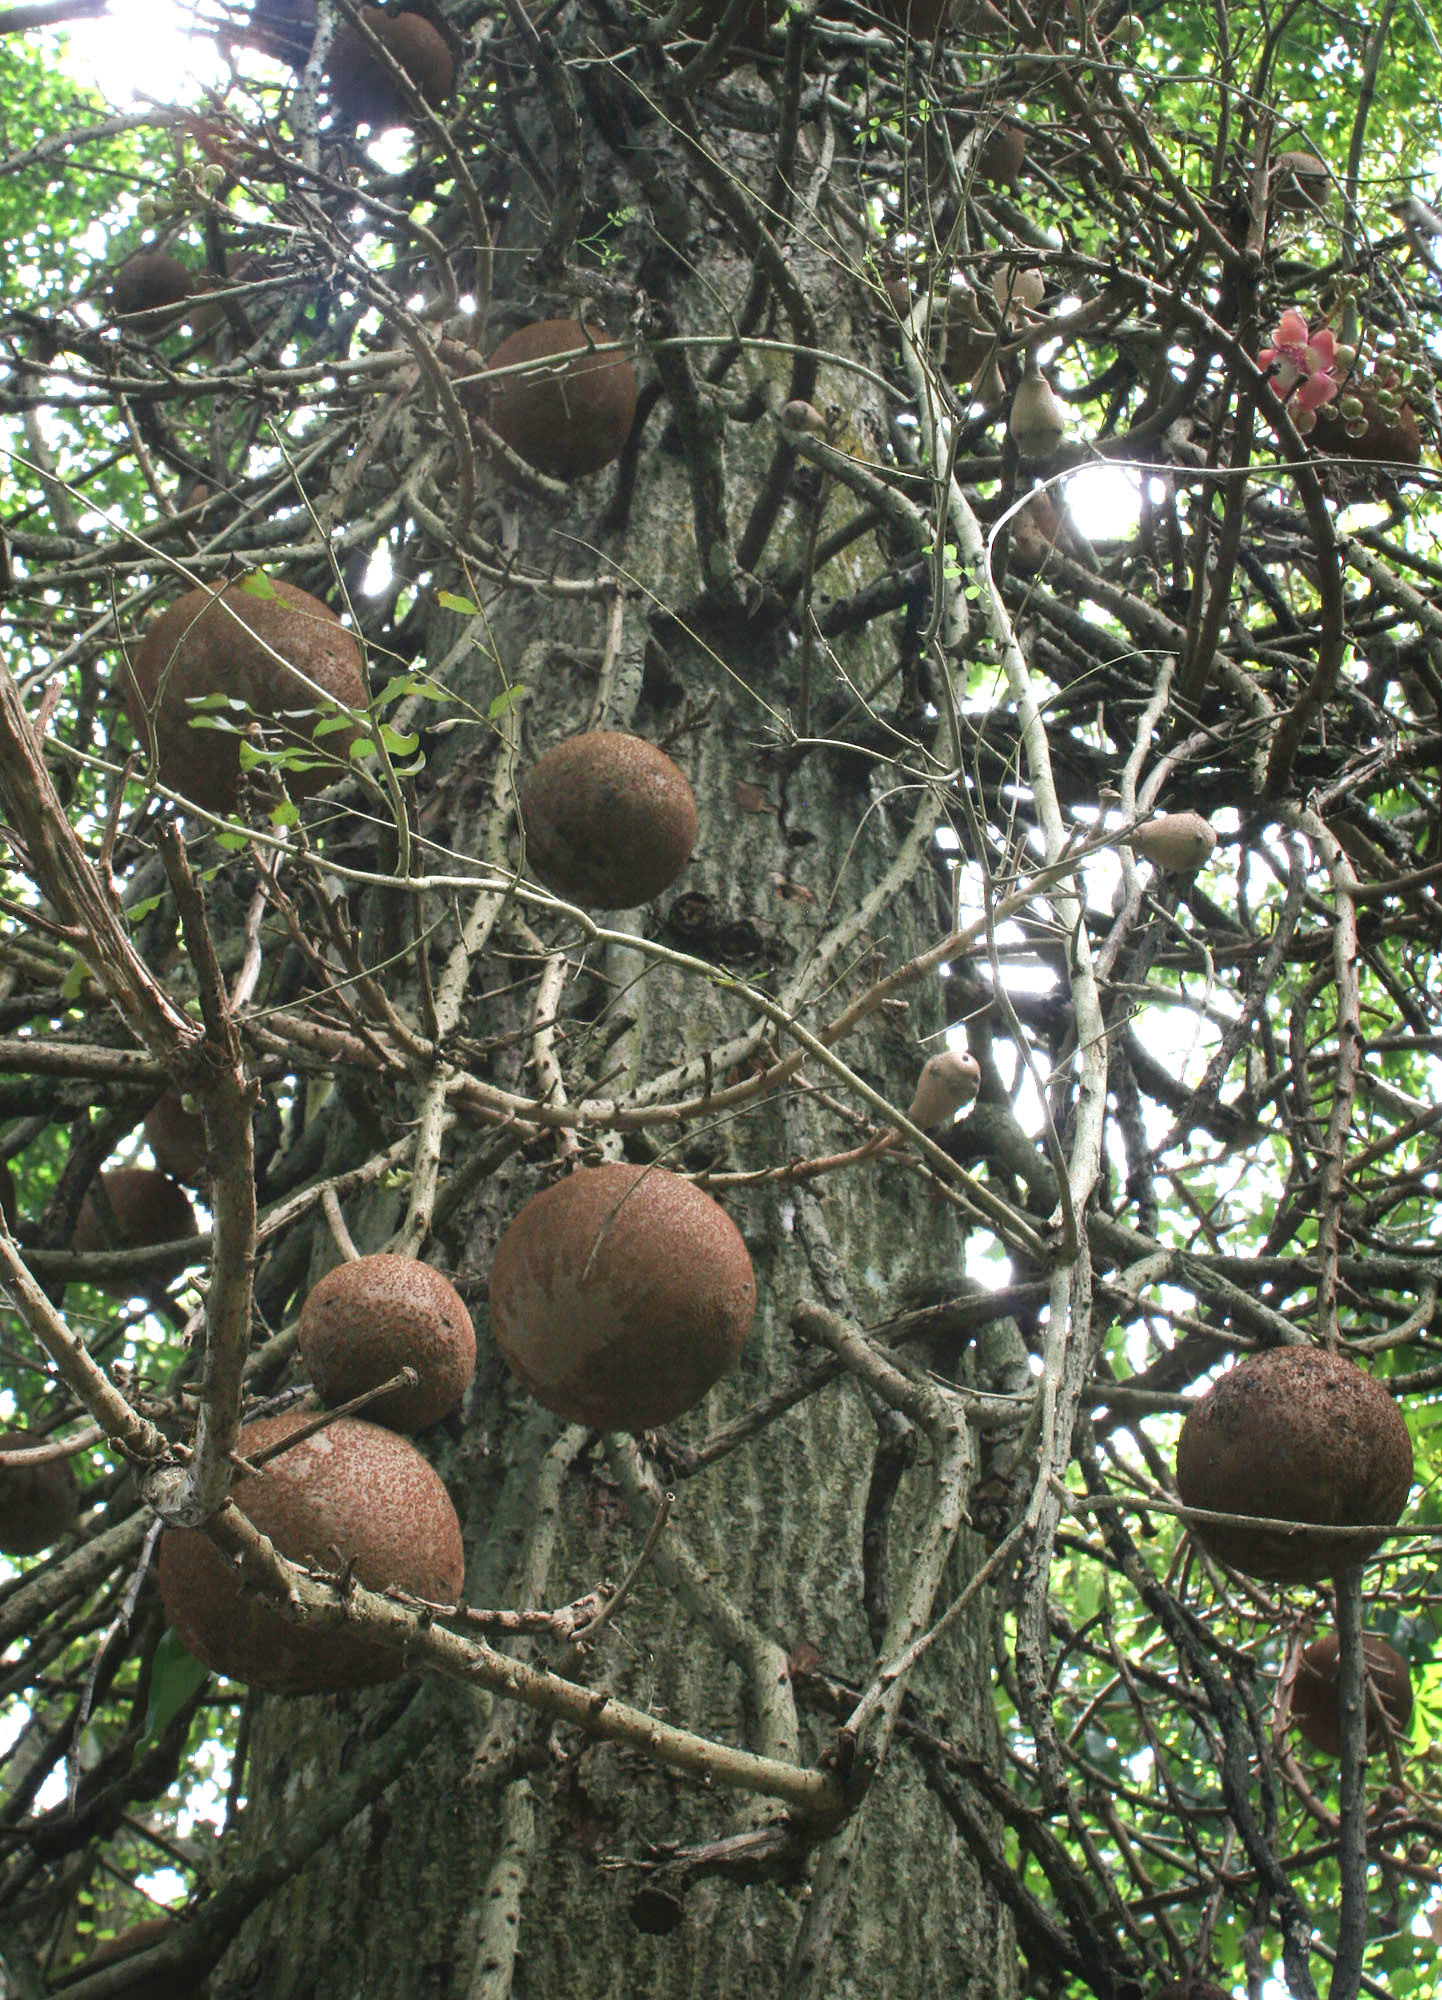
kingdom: Plantae
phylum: Tracheophyta
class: Magnoliopsida
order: Ericales
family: Lecythidaceae
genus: Couroupita
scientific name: Couroupita guianensis
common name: Cannonball tree
